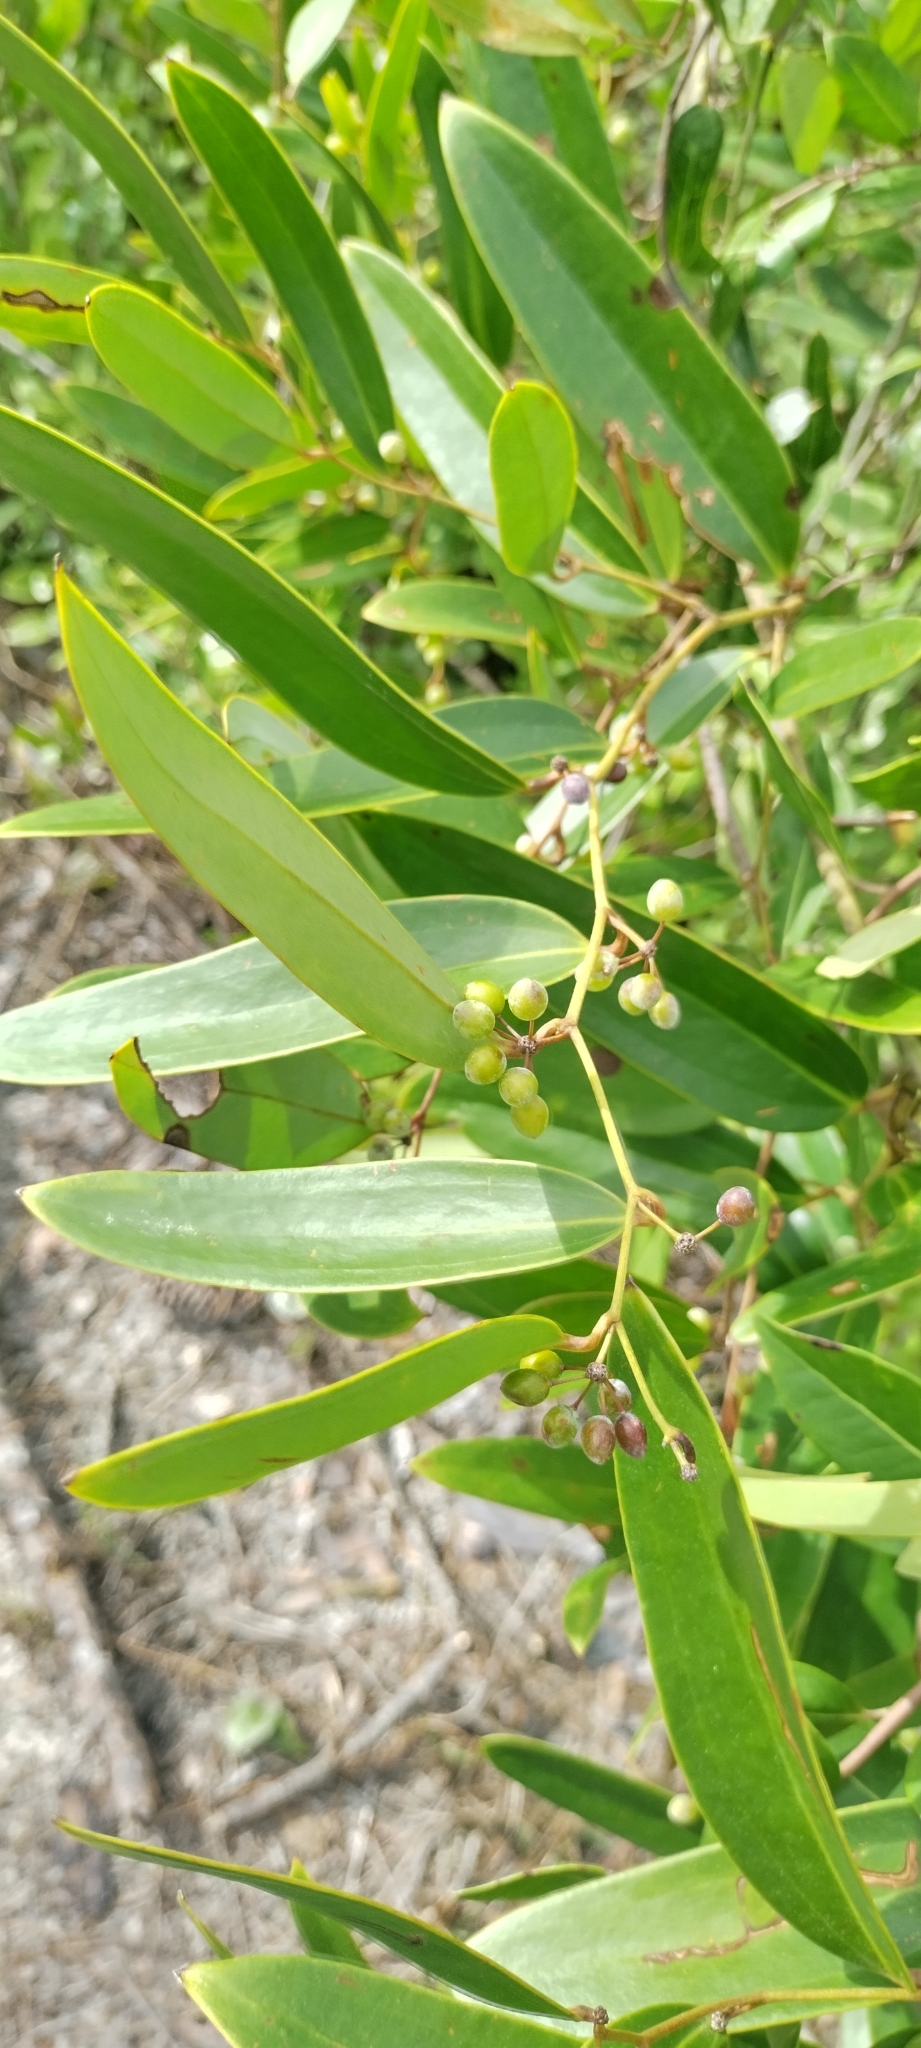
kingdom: Plantae
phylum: Tracheophyta
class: Liliopsida
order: Liliales
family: Smilacaceae
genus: Smilax
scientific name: Smilax laurifolia
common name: Bamboovine
